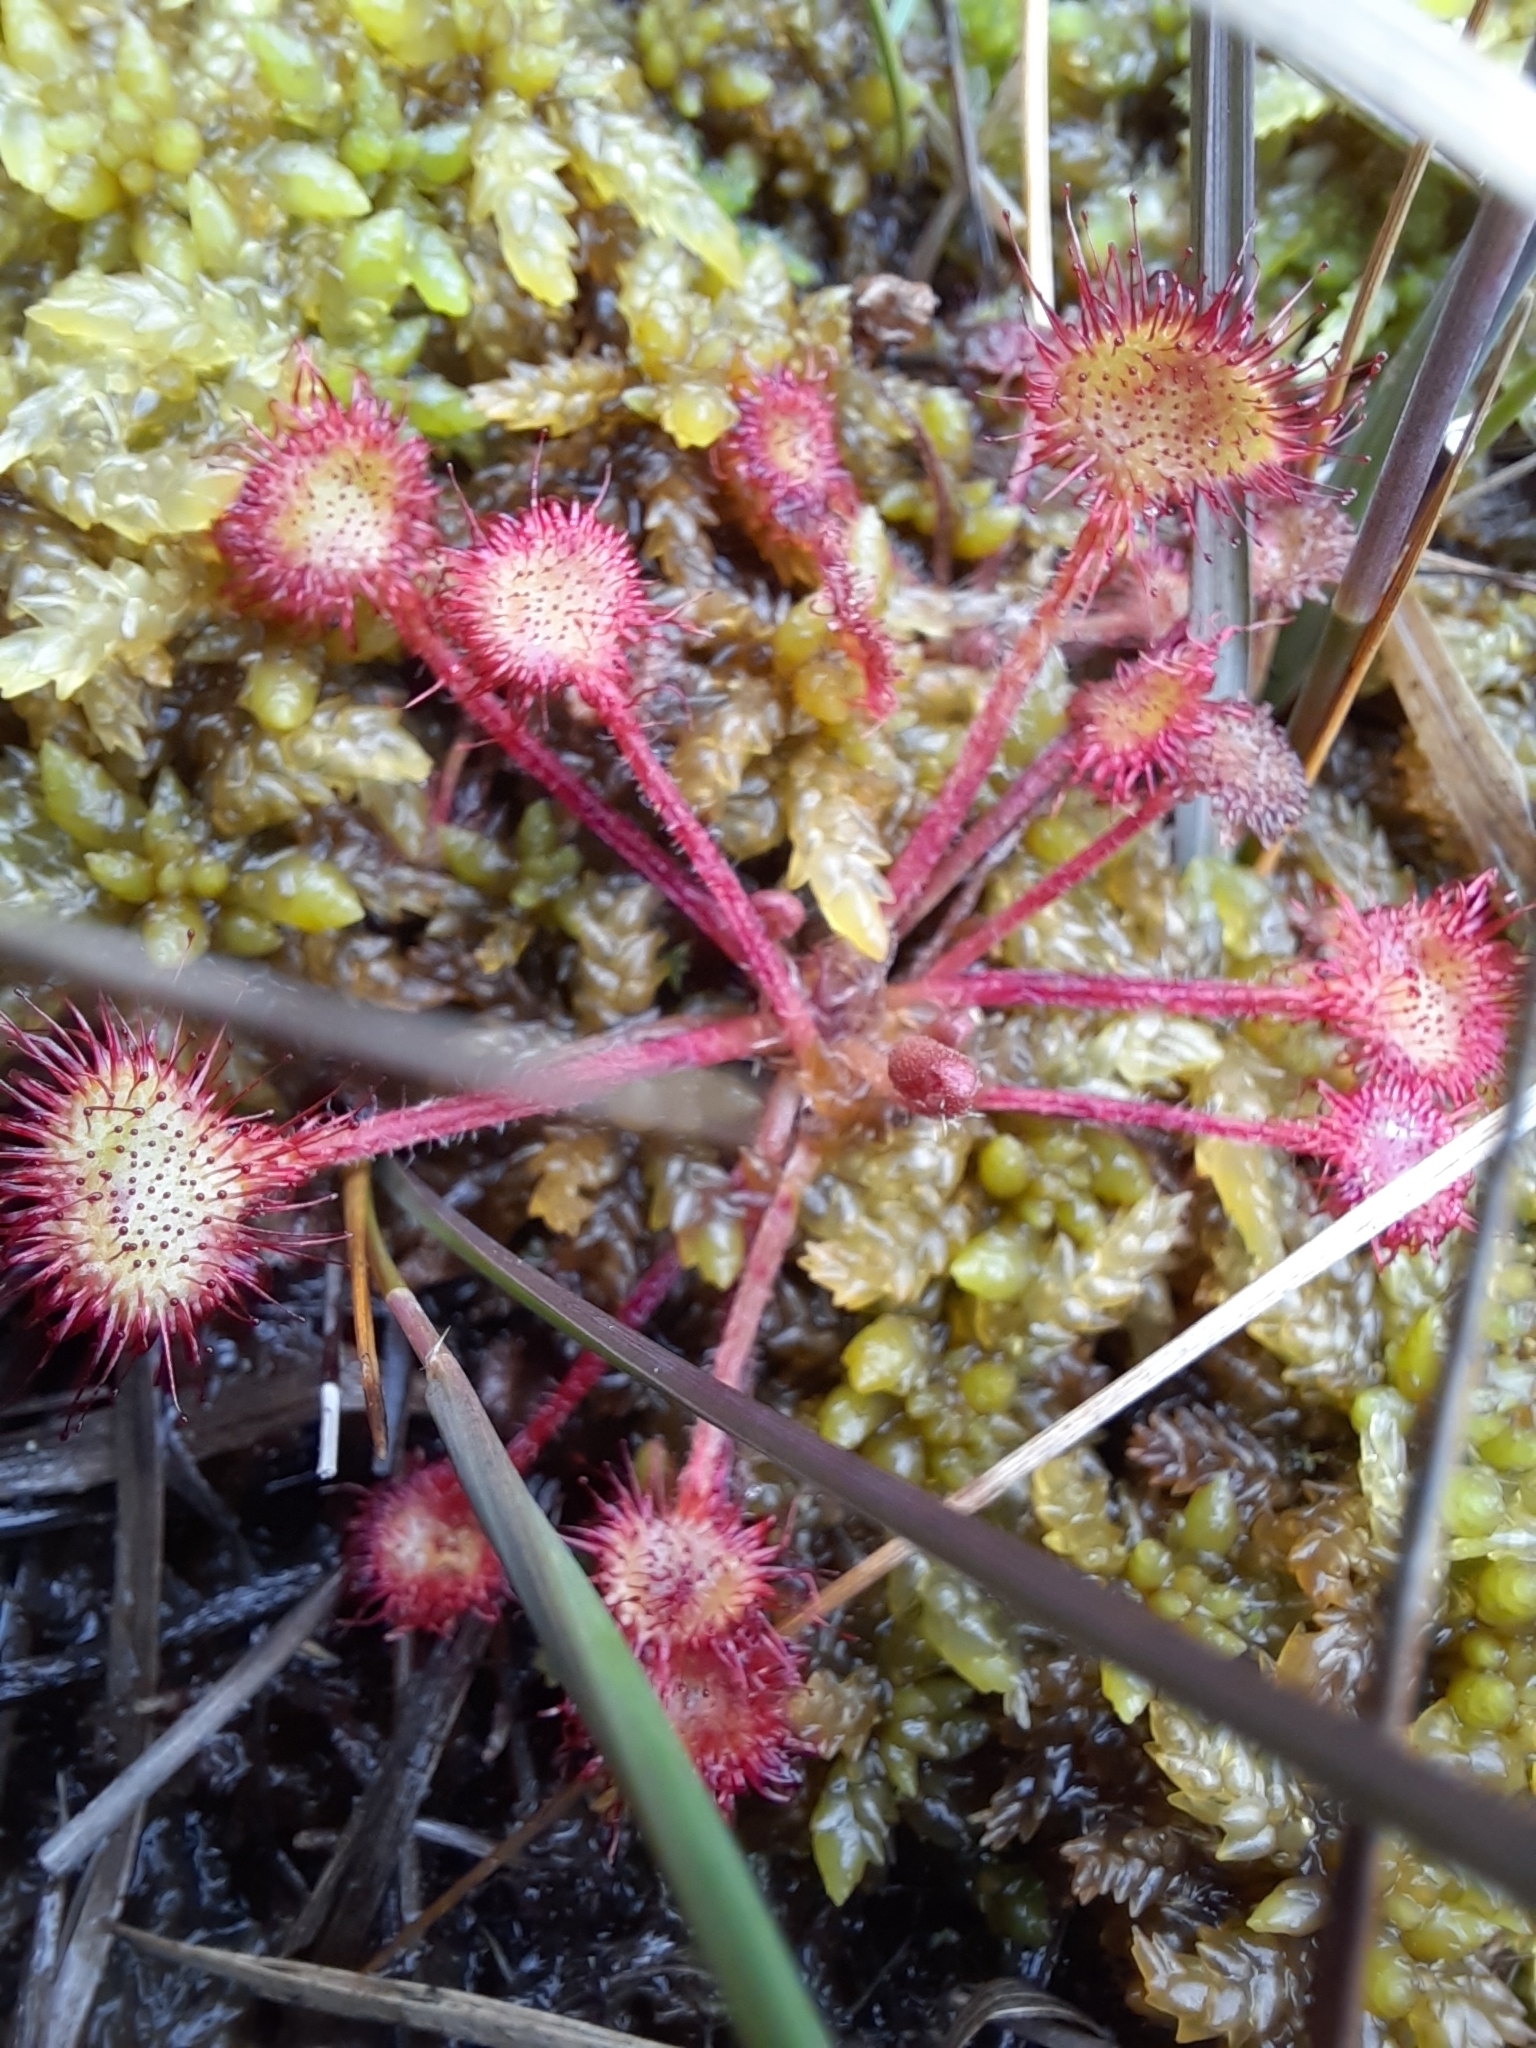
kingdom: Plantae
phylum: Tracheophyta
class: Magnoliopsida
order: Caryophyllales
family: Droseraceae
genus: Drosera
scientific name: Drosera rotundifolia
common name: Round-leaved sundew
